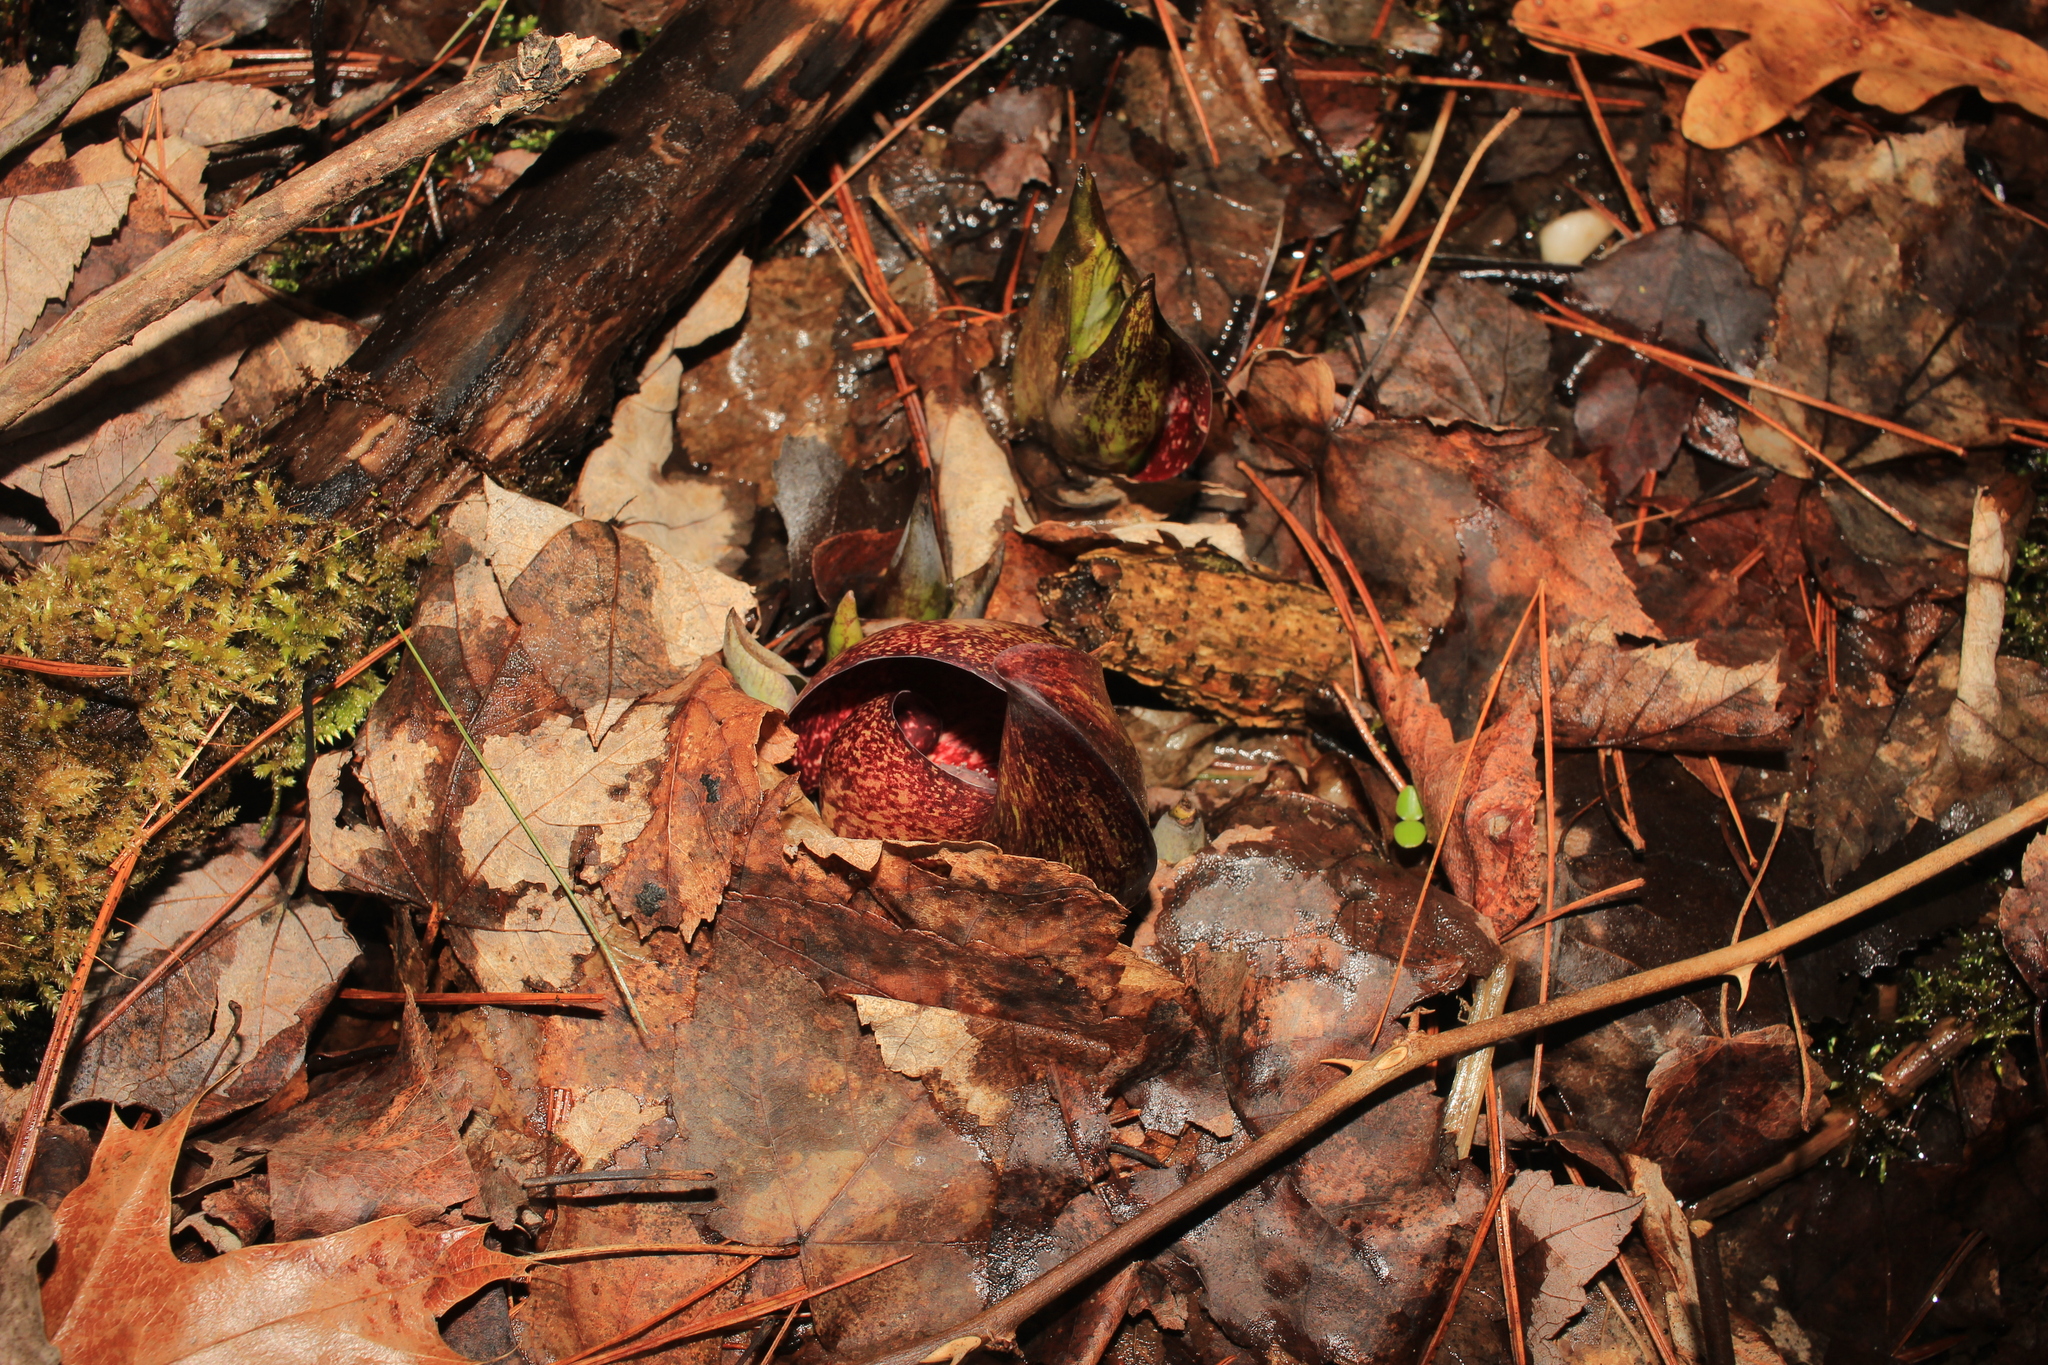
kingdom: Plantae
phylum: Tracheophyta
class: Liliopsida
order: Alismatales
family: Araceae
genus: Symplocarpus
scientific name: Symplocarpus foetidus
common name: Eastern skunk cabbage
